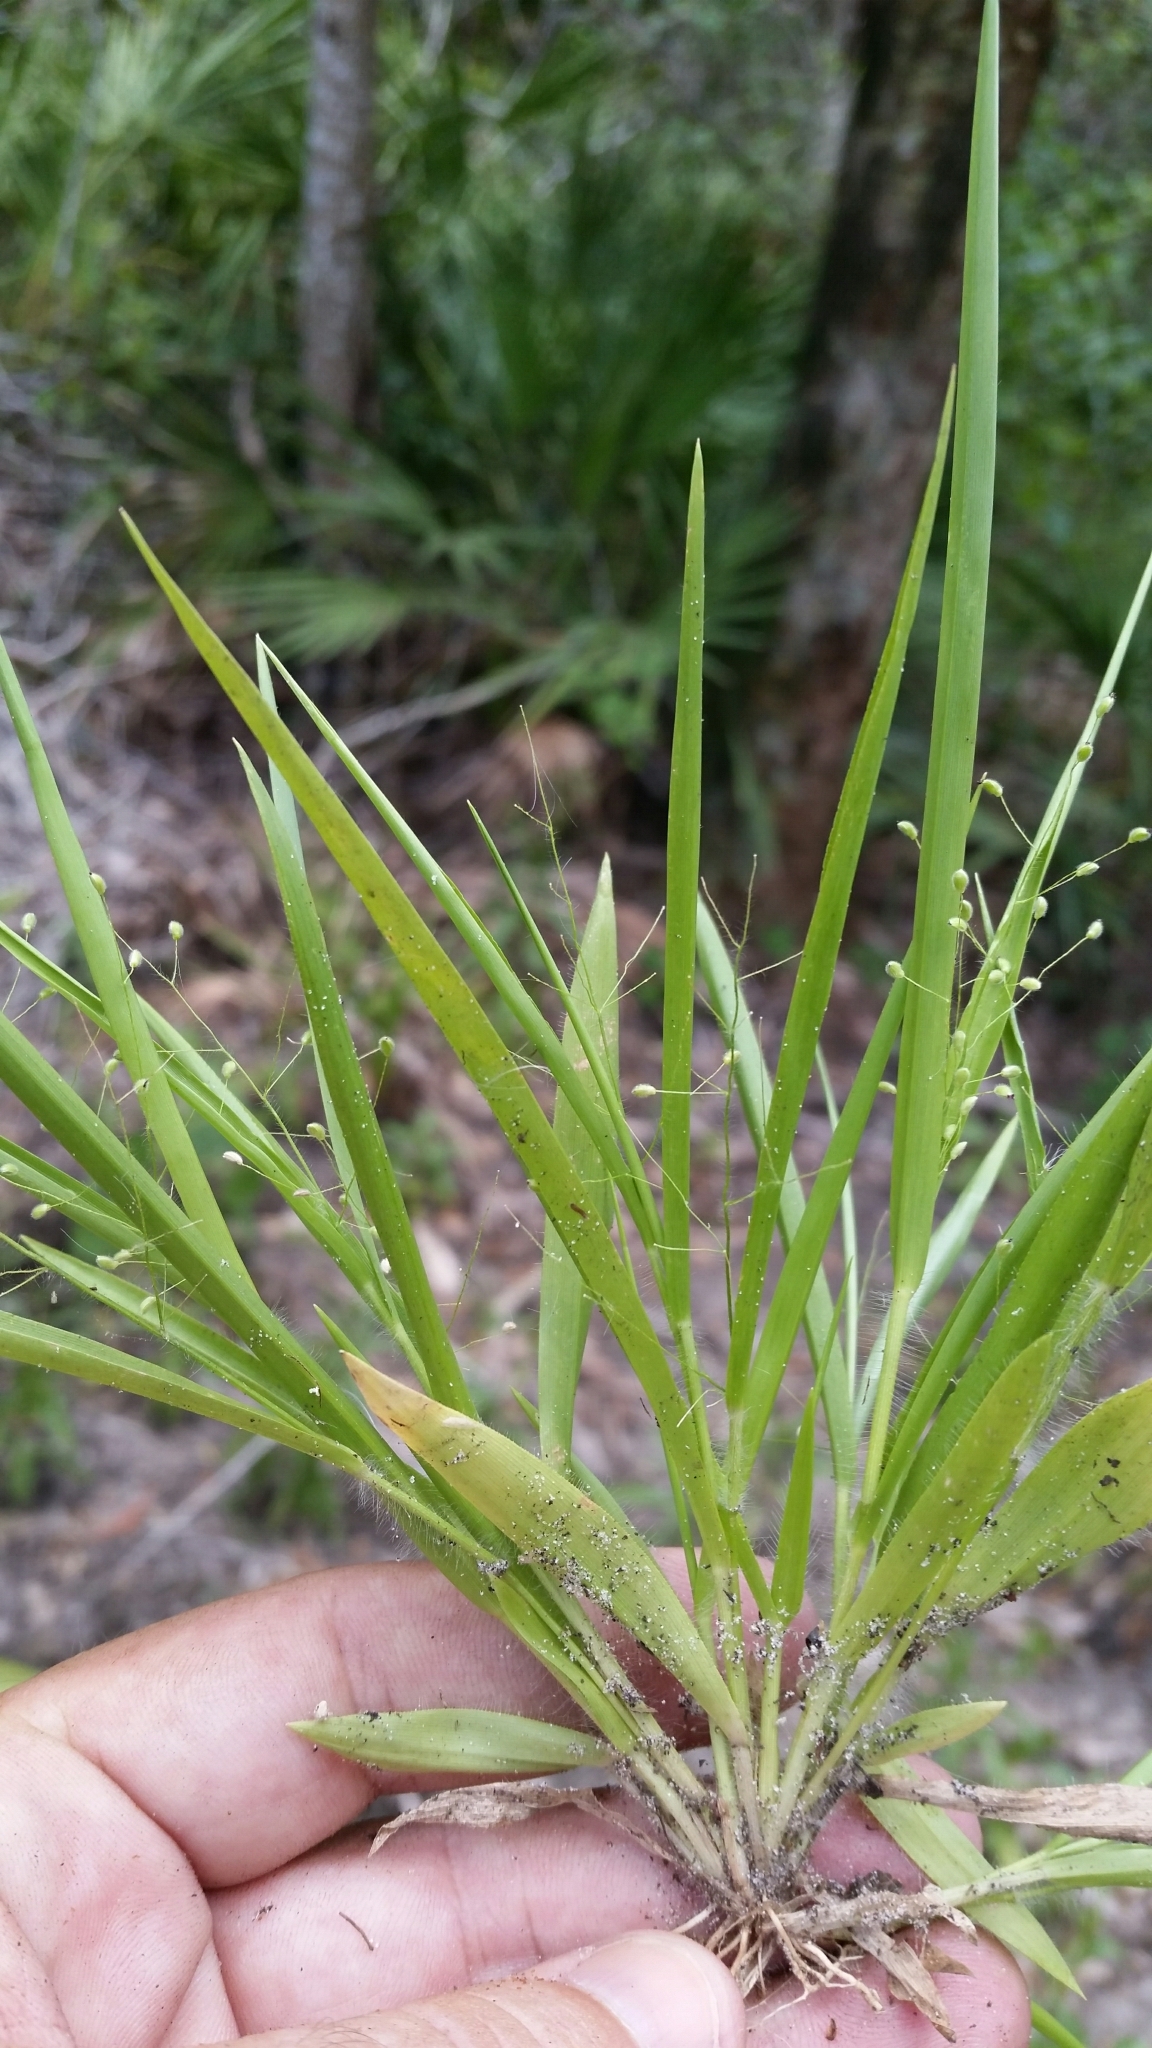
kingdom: Plantae
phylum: Tracheophyta
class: Liliopsida
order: Poales
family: Poaceae
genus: Dichanthelium
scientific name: Dichanthelium laxiflorum
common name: Soft-tuft panic grass
